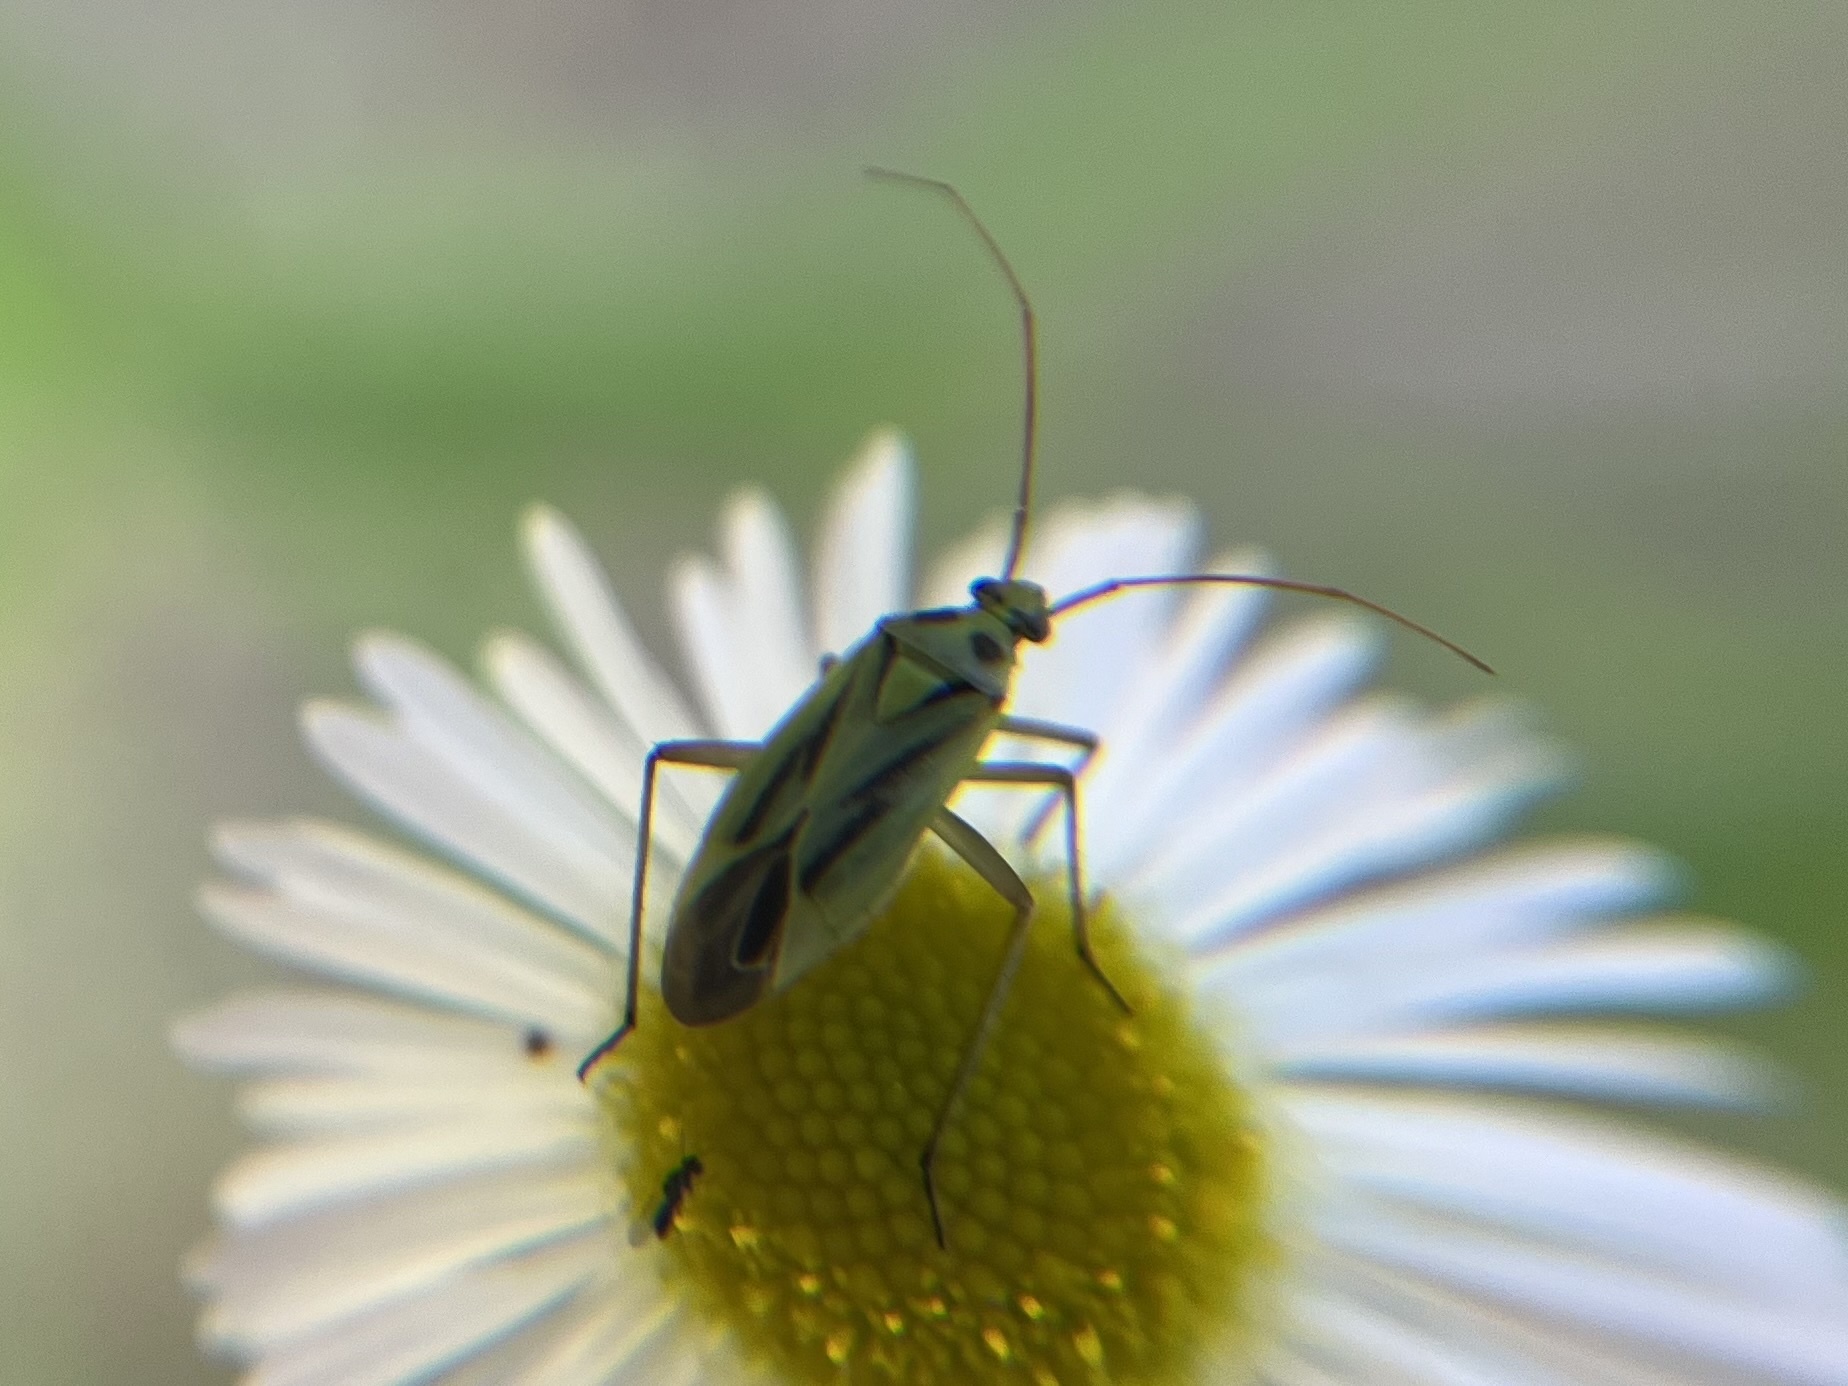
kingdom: Animalia
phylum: Arthropoda
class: Insecta
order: Hemiptera
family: Miridae
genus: Stenotus
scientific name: Stenotus binotatus
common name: Plant bug
